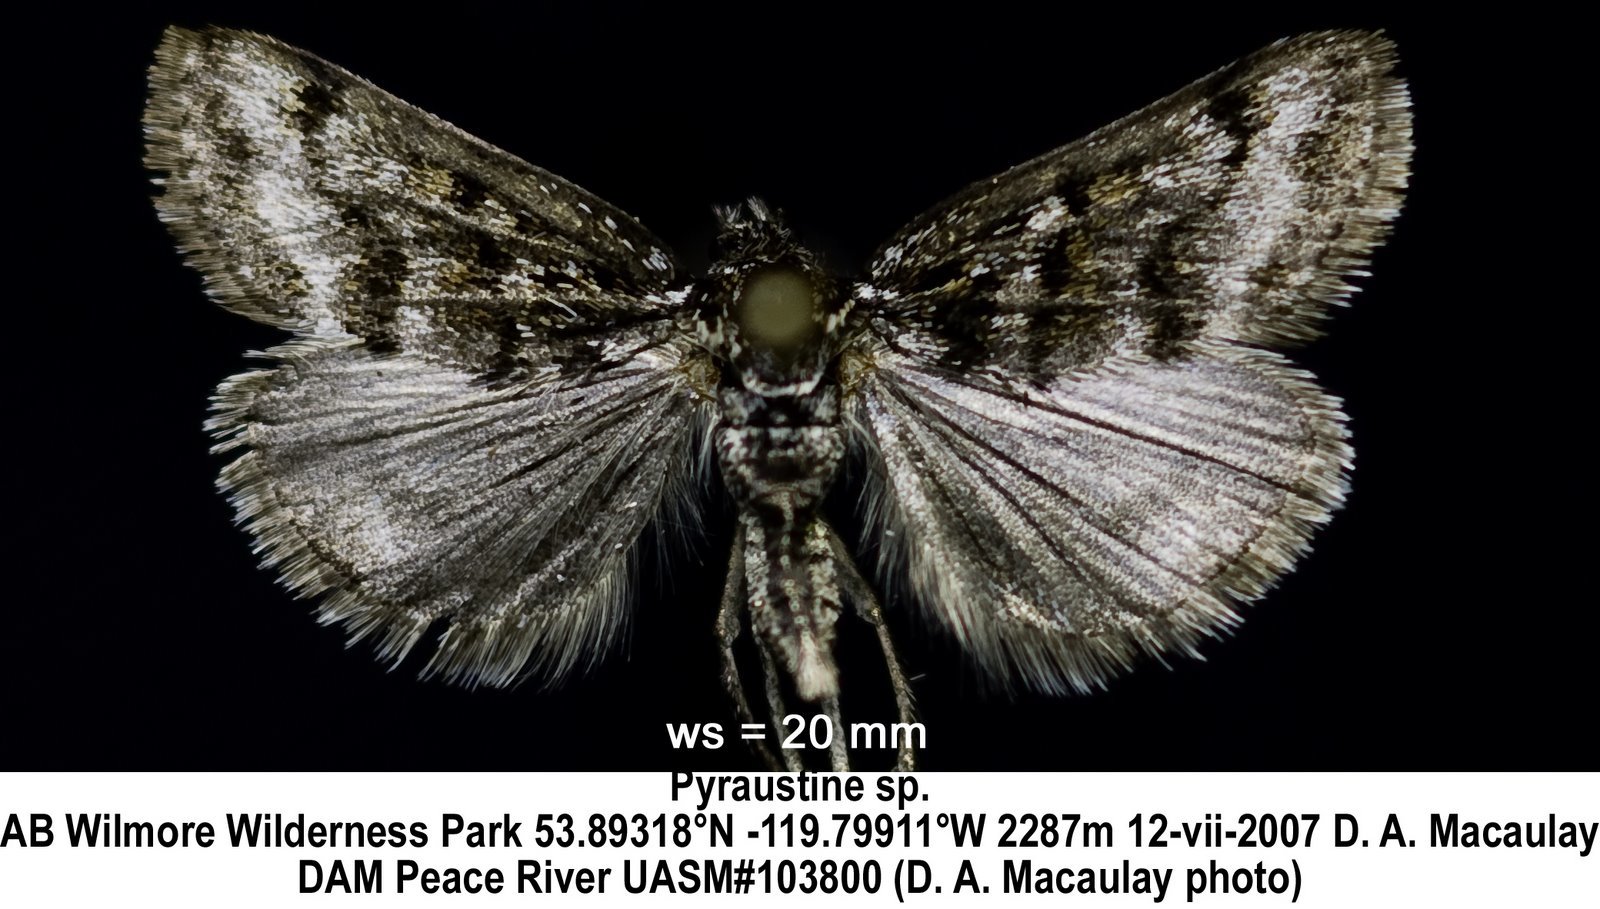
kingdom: Animalia
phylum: Arthropoda
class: Insecta
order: Lepidoptera
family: Crambidae
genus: Orenaia
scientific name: Orenaia trivialis
